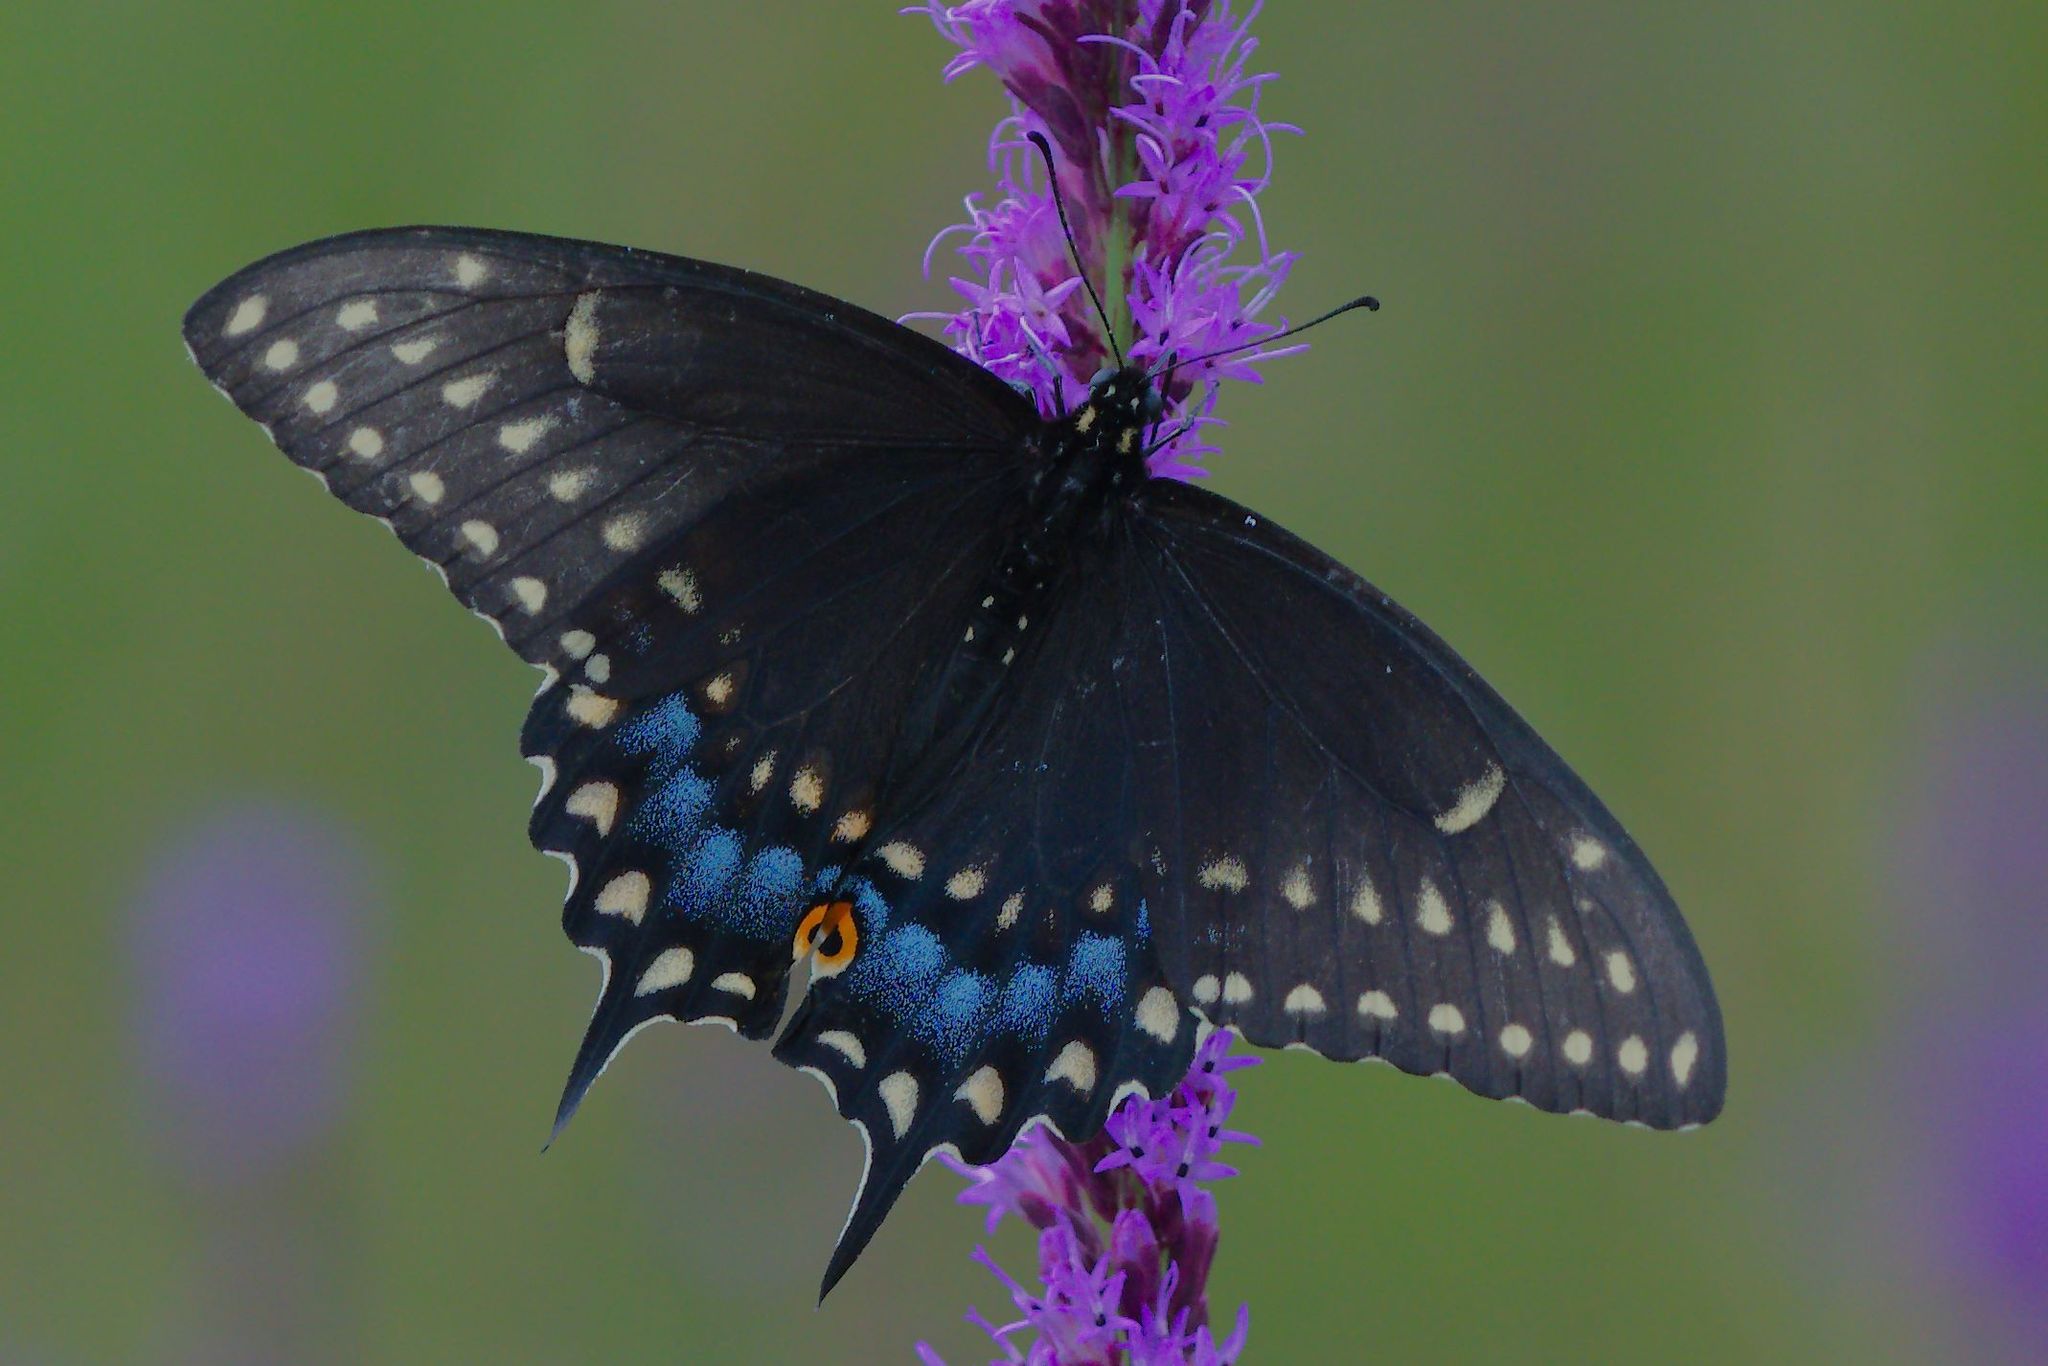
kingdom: Animalia
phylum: Arthropoda
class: Insecta
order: Lepidoptera
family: Papilionidae
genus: Papilio
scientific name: Papilio polyxenes
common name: Black swallowtail
